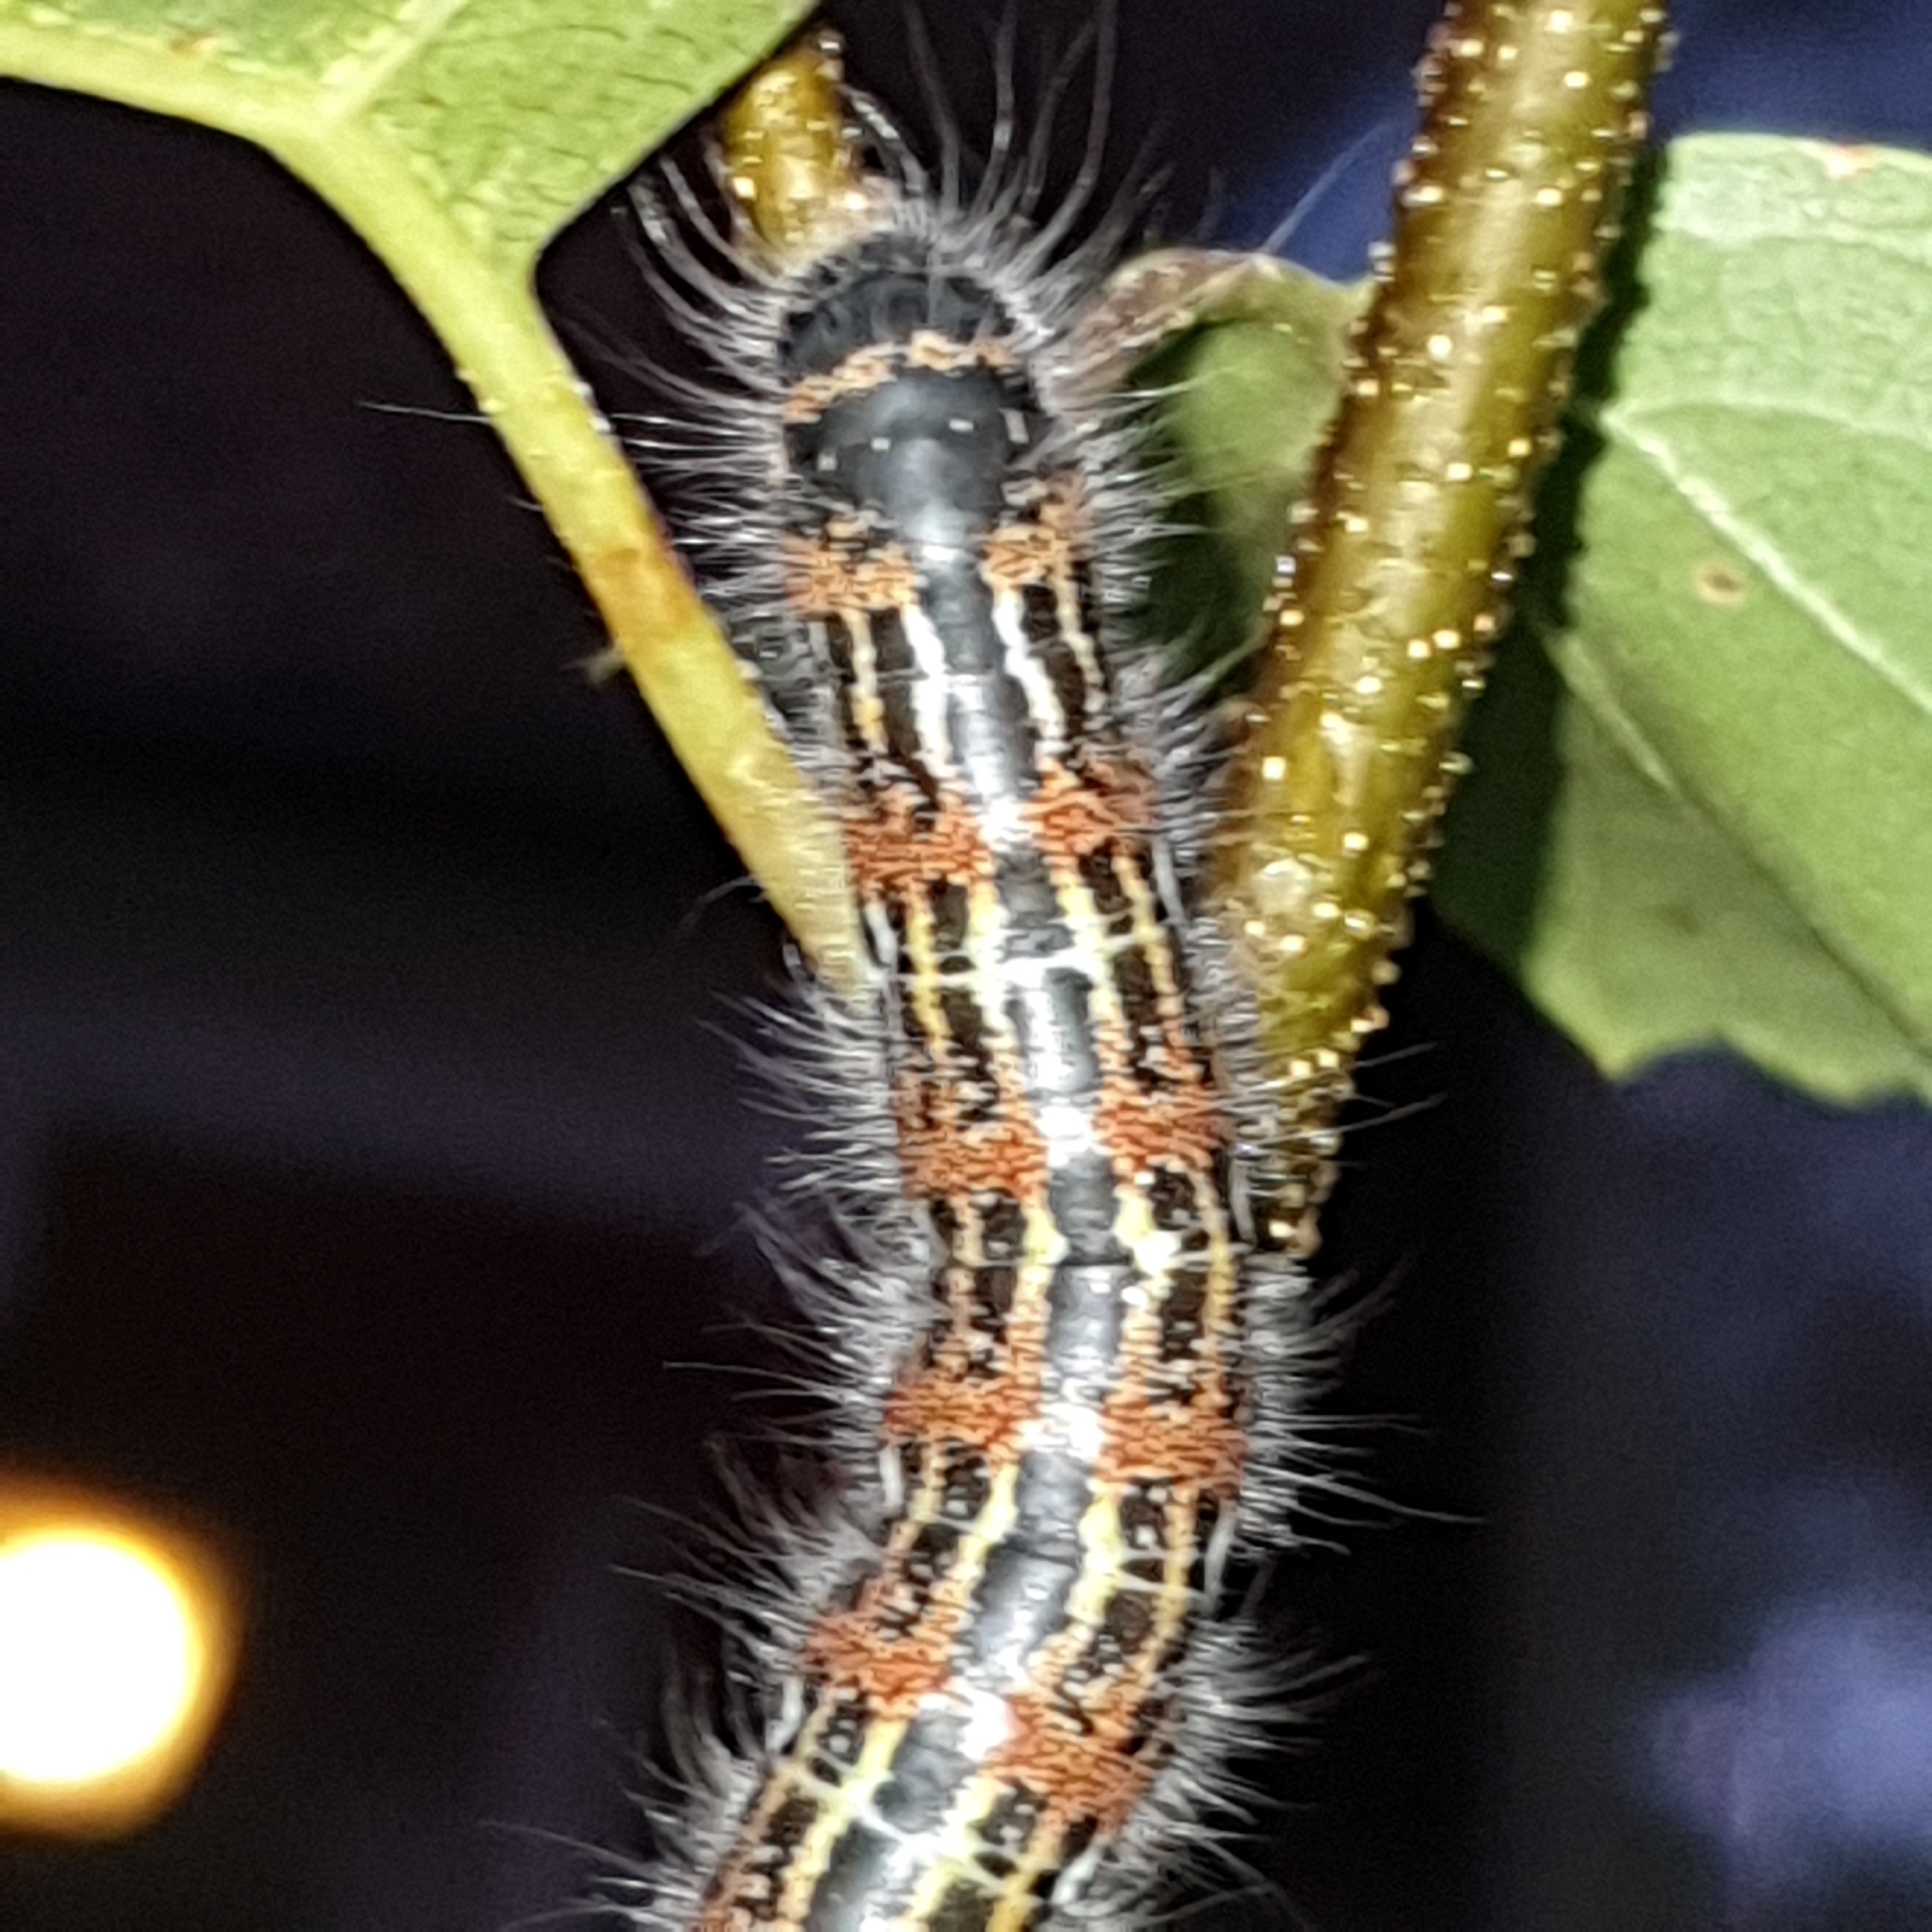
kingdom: Animalia
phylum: Arthropoda
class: Insecta
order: Lepidoptera
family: Notodontidae
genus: Phalera
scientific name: Phalera bucephala
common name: Buff-tip
